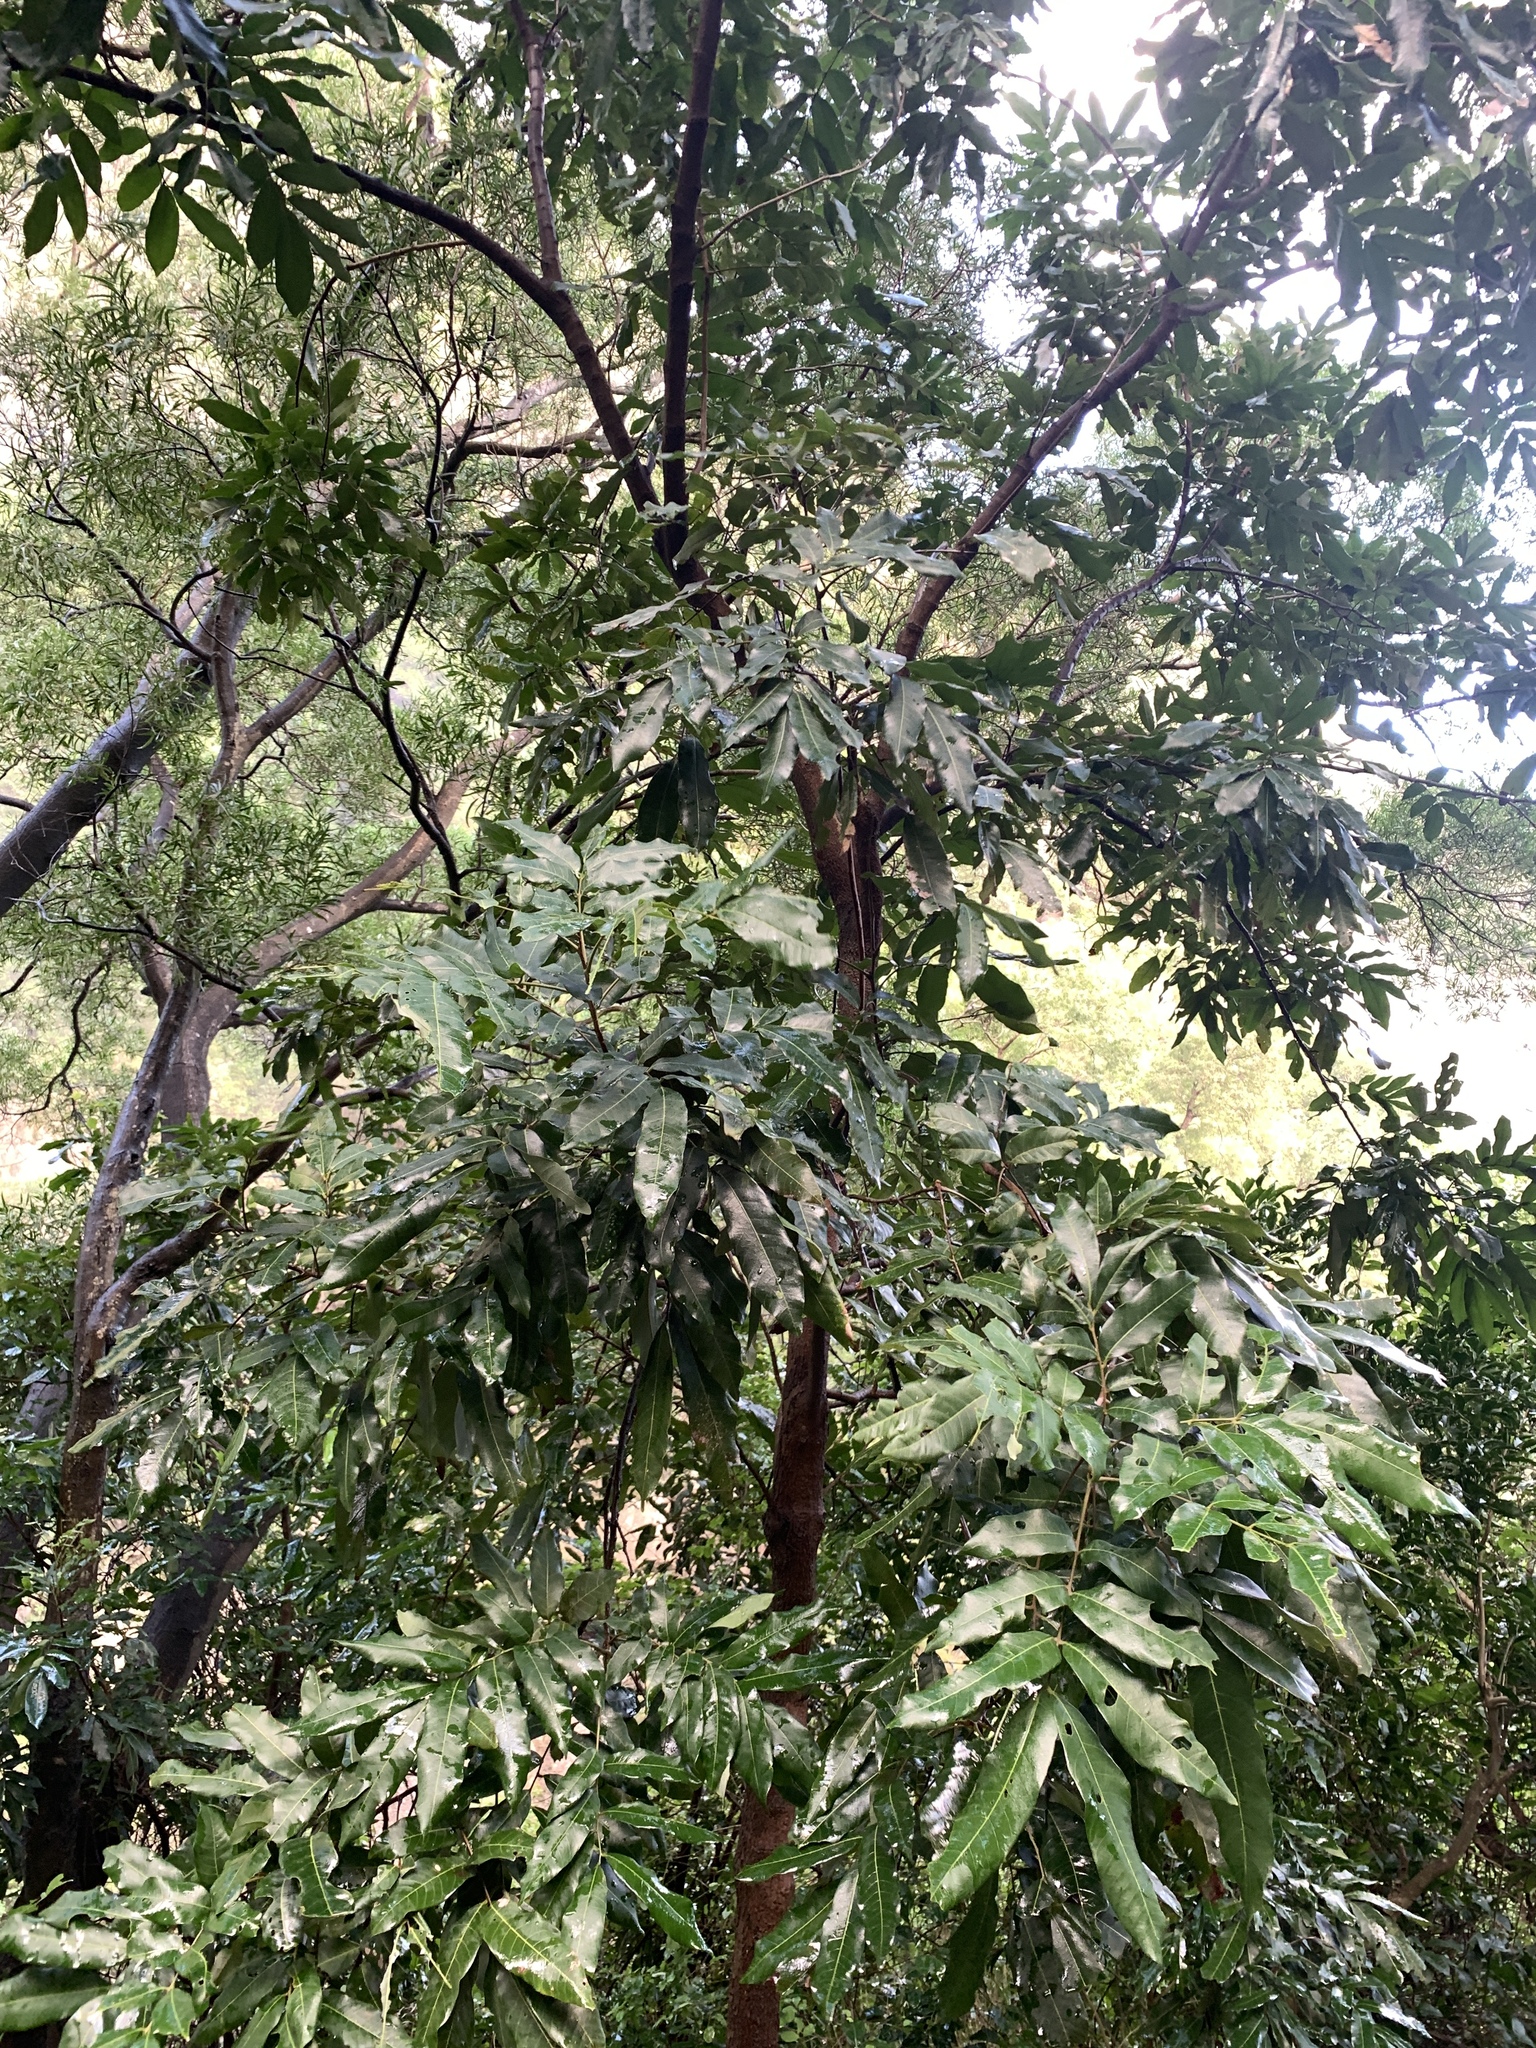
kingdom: Plantae
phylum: Tracheophyta
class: Magnoliopsida
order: Sapindales
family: Sapindaceae
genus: Dimocarpus
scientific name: Dimocarpus longan
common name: Longan
